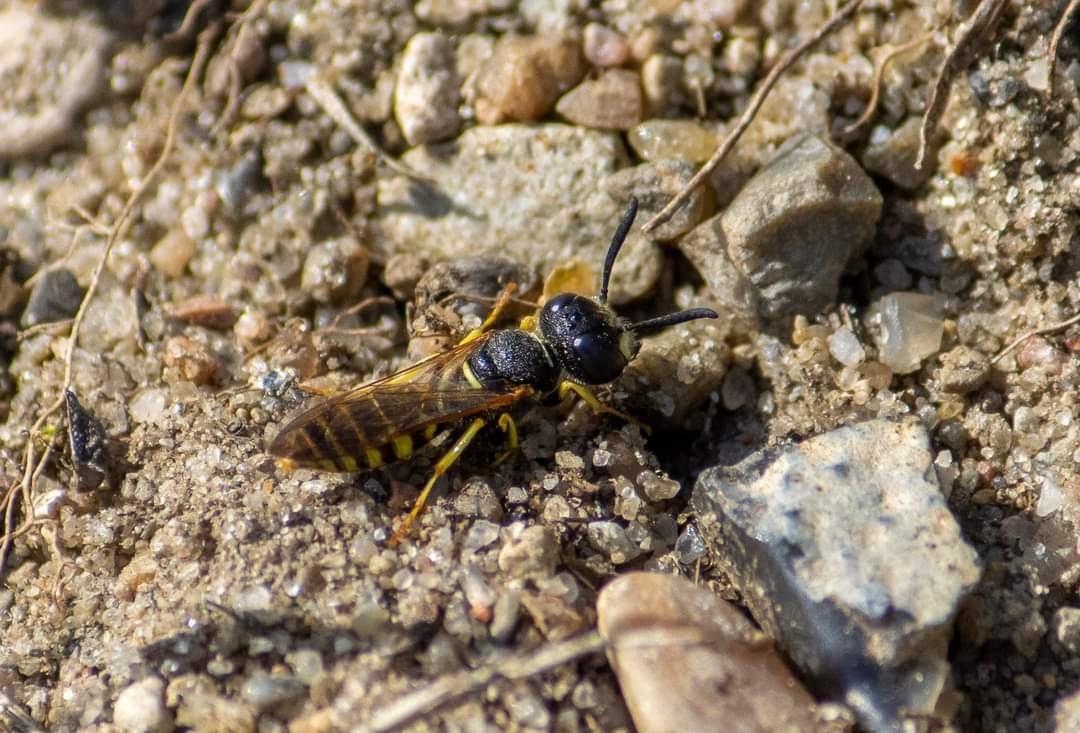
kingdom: Animalia
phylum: Arthropoda
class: Insecta
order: Hymenoptera
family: Crabronidae
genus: Philanthus
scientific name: Philanthus triangulum
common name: Bee wolf
